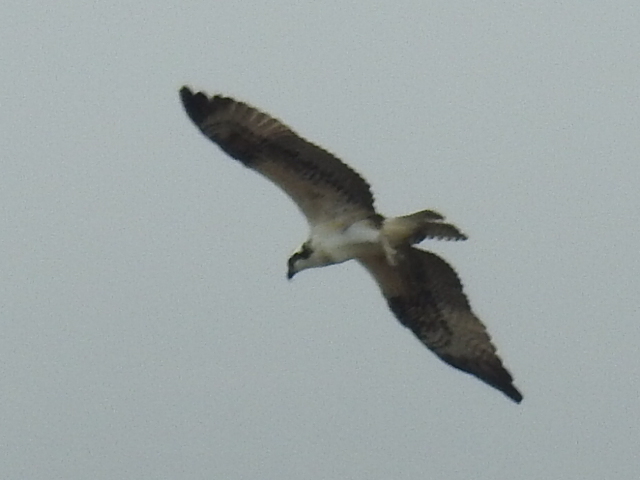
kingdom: Animalia
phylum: Chordata
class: Aves
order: Accipitriformes
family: Pandionidae
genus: Pandion
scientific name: Pandion haliaetus
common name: Osprey
